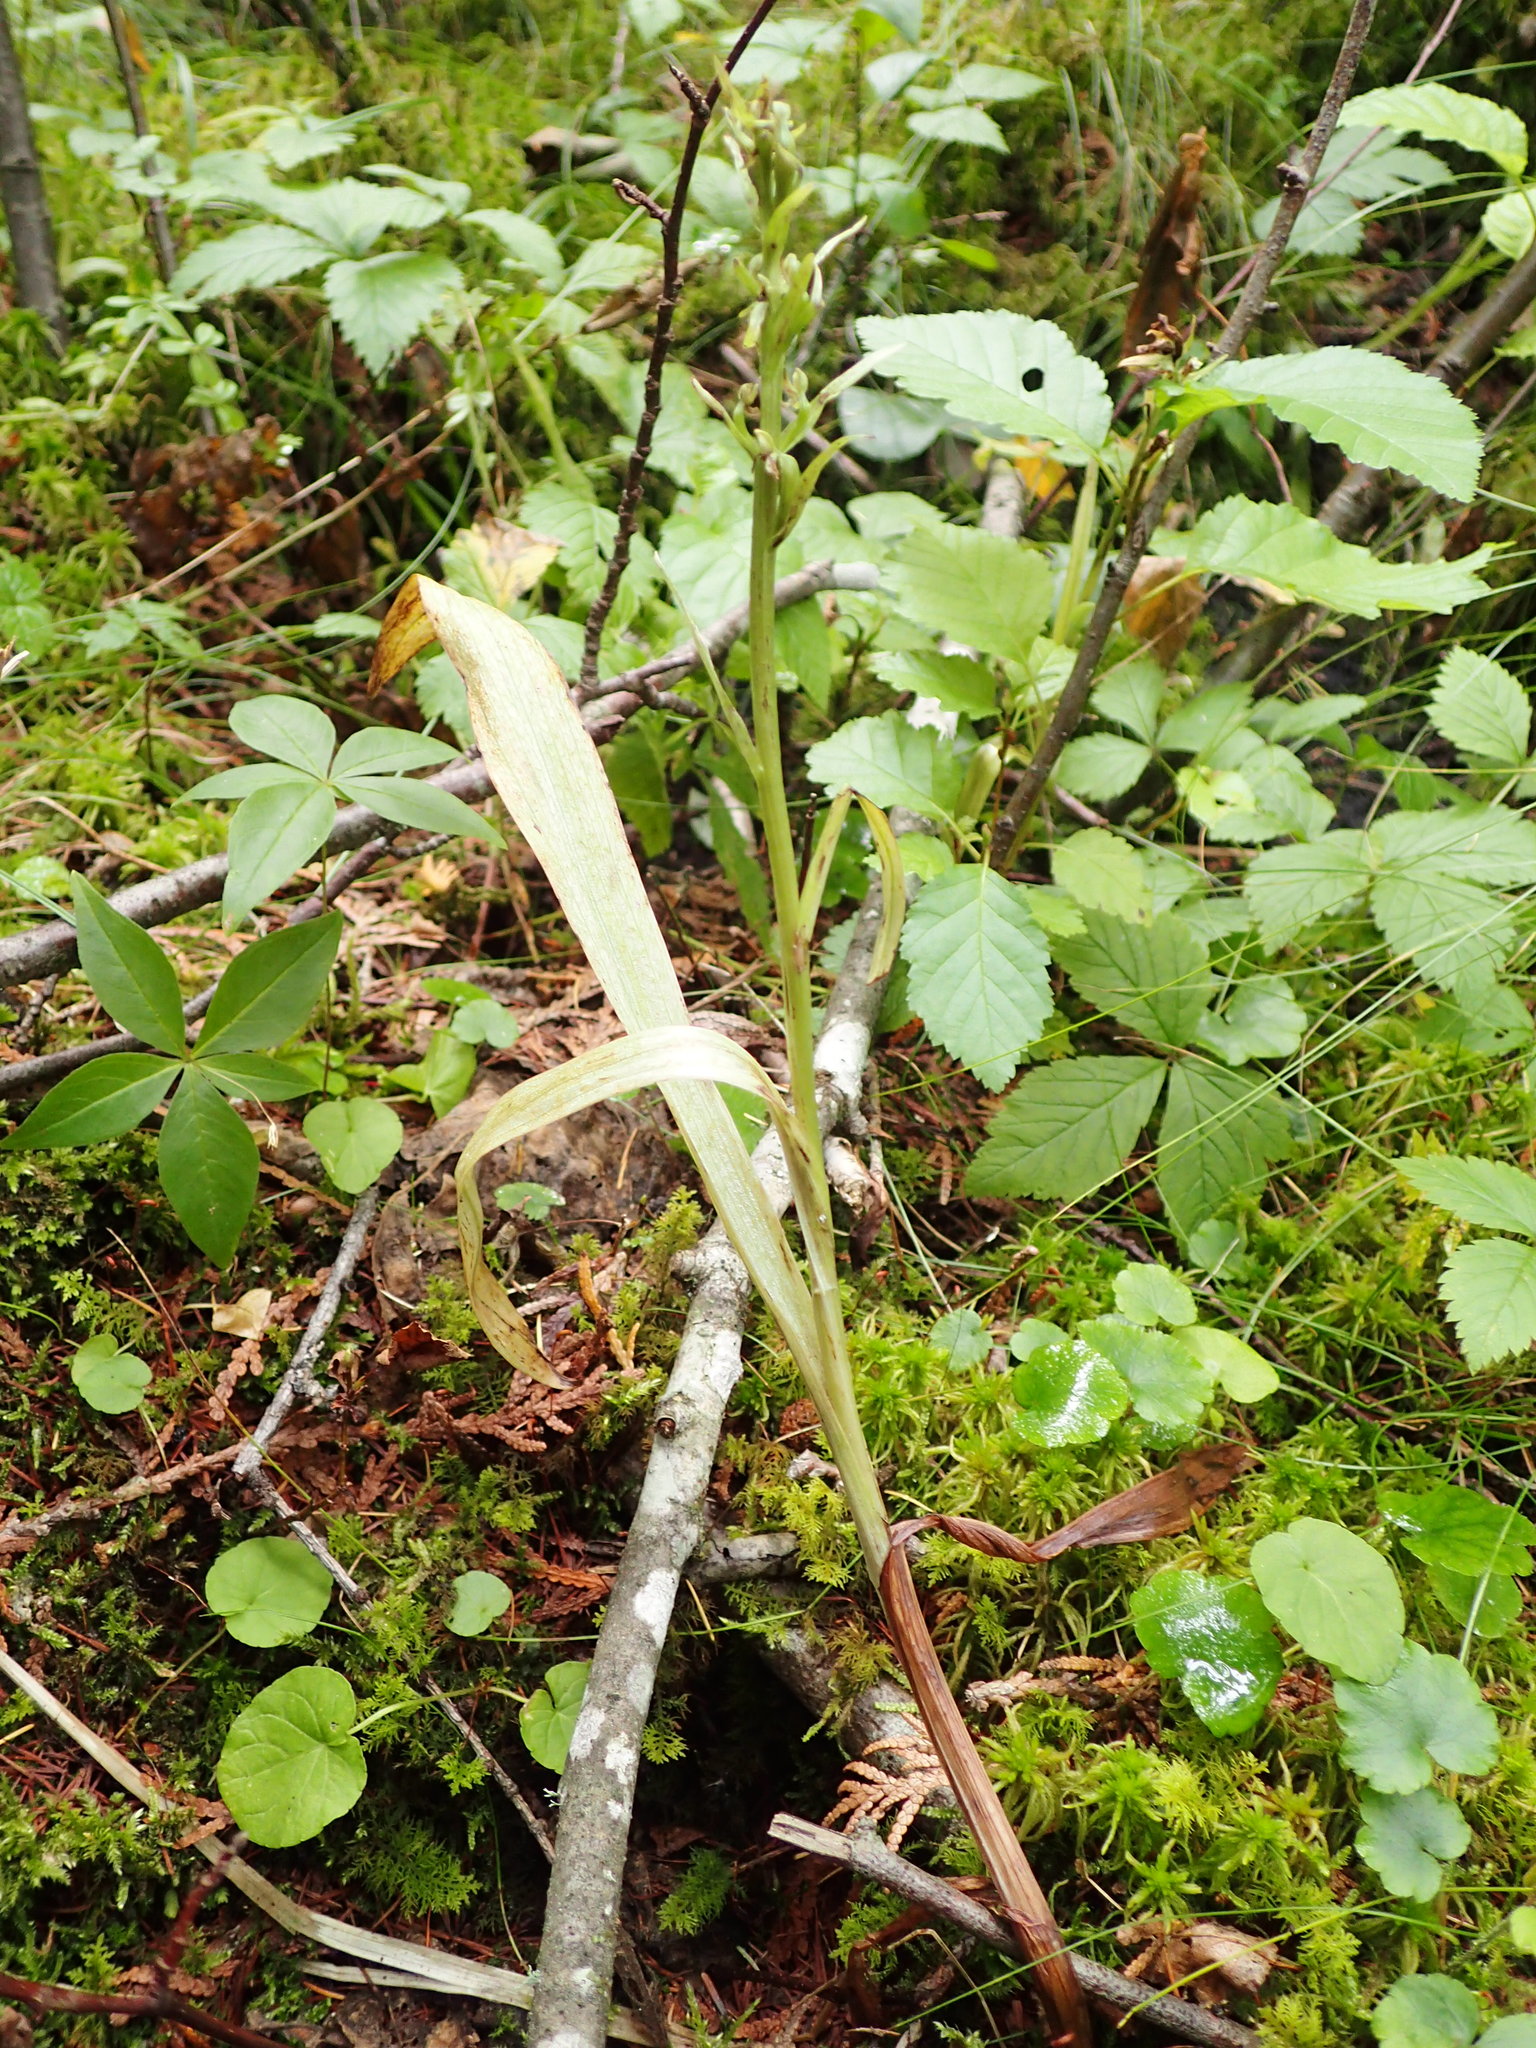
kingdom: Plantae
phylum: Tracheophyta
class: Liliopsida
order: Asparagales
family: Orchidaceae
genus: Platanthera
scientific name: Platanthera aquilonis
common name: Northern green orchid
